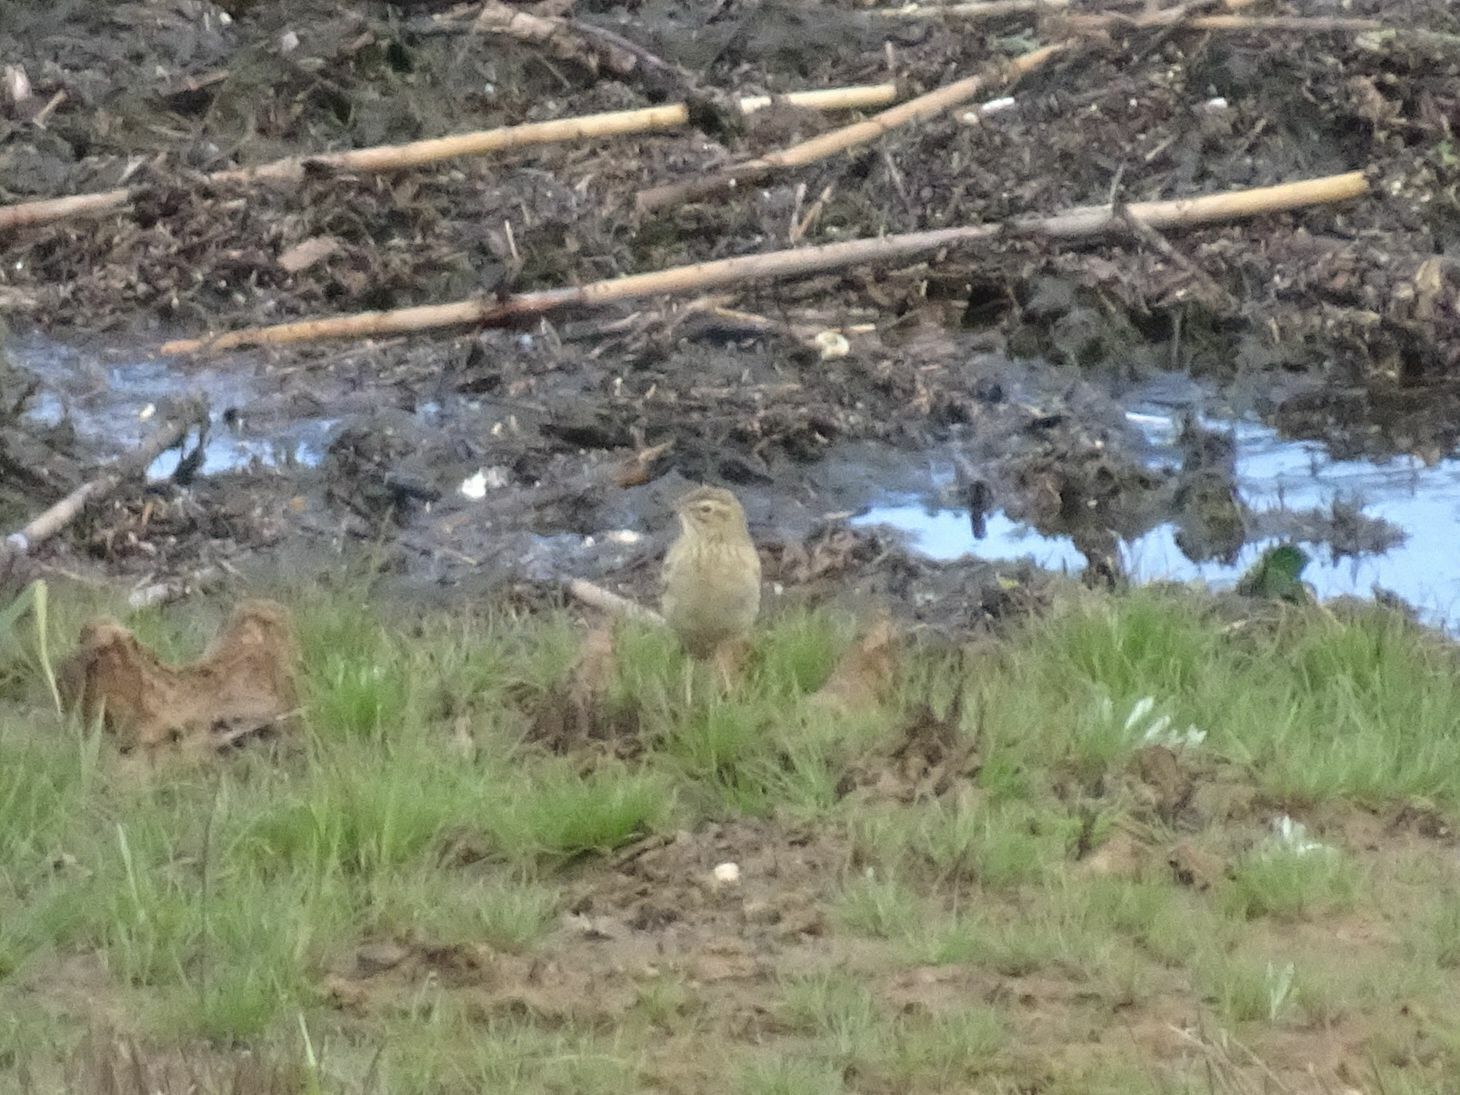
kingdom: Animalia
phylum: Chordata
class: Aves
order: Passeriformes
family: Motacillidae
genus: Anthus
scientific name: Anthus cinnamomeus
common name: African pipit
